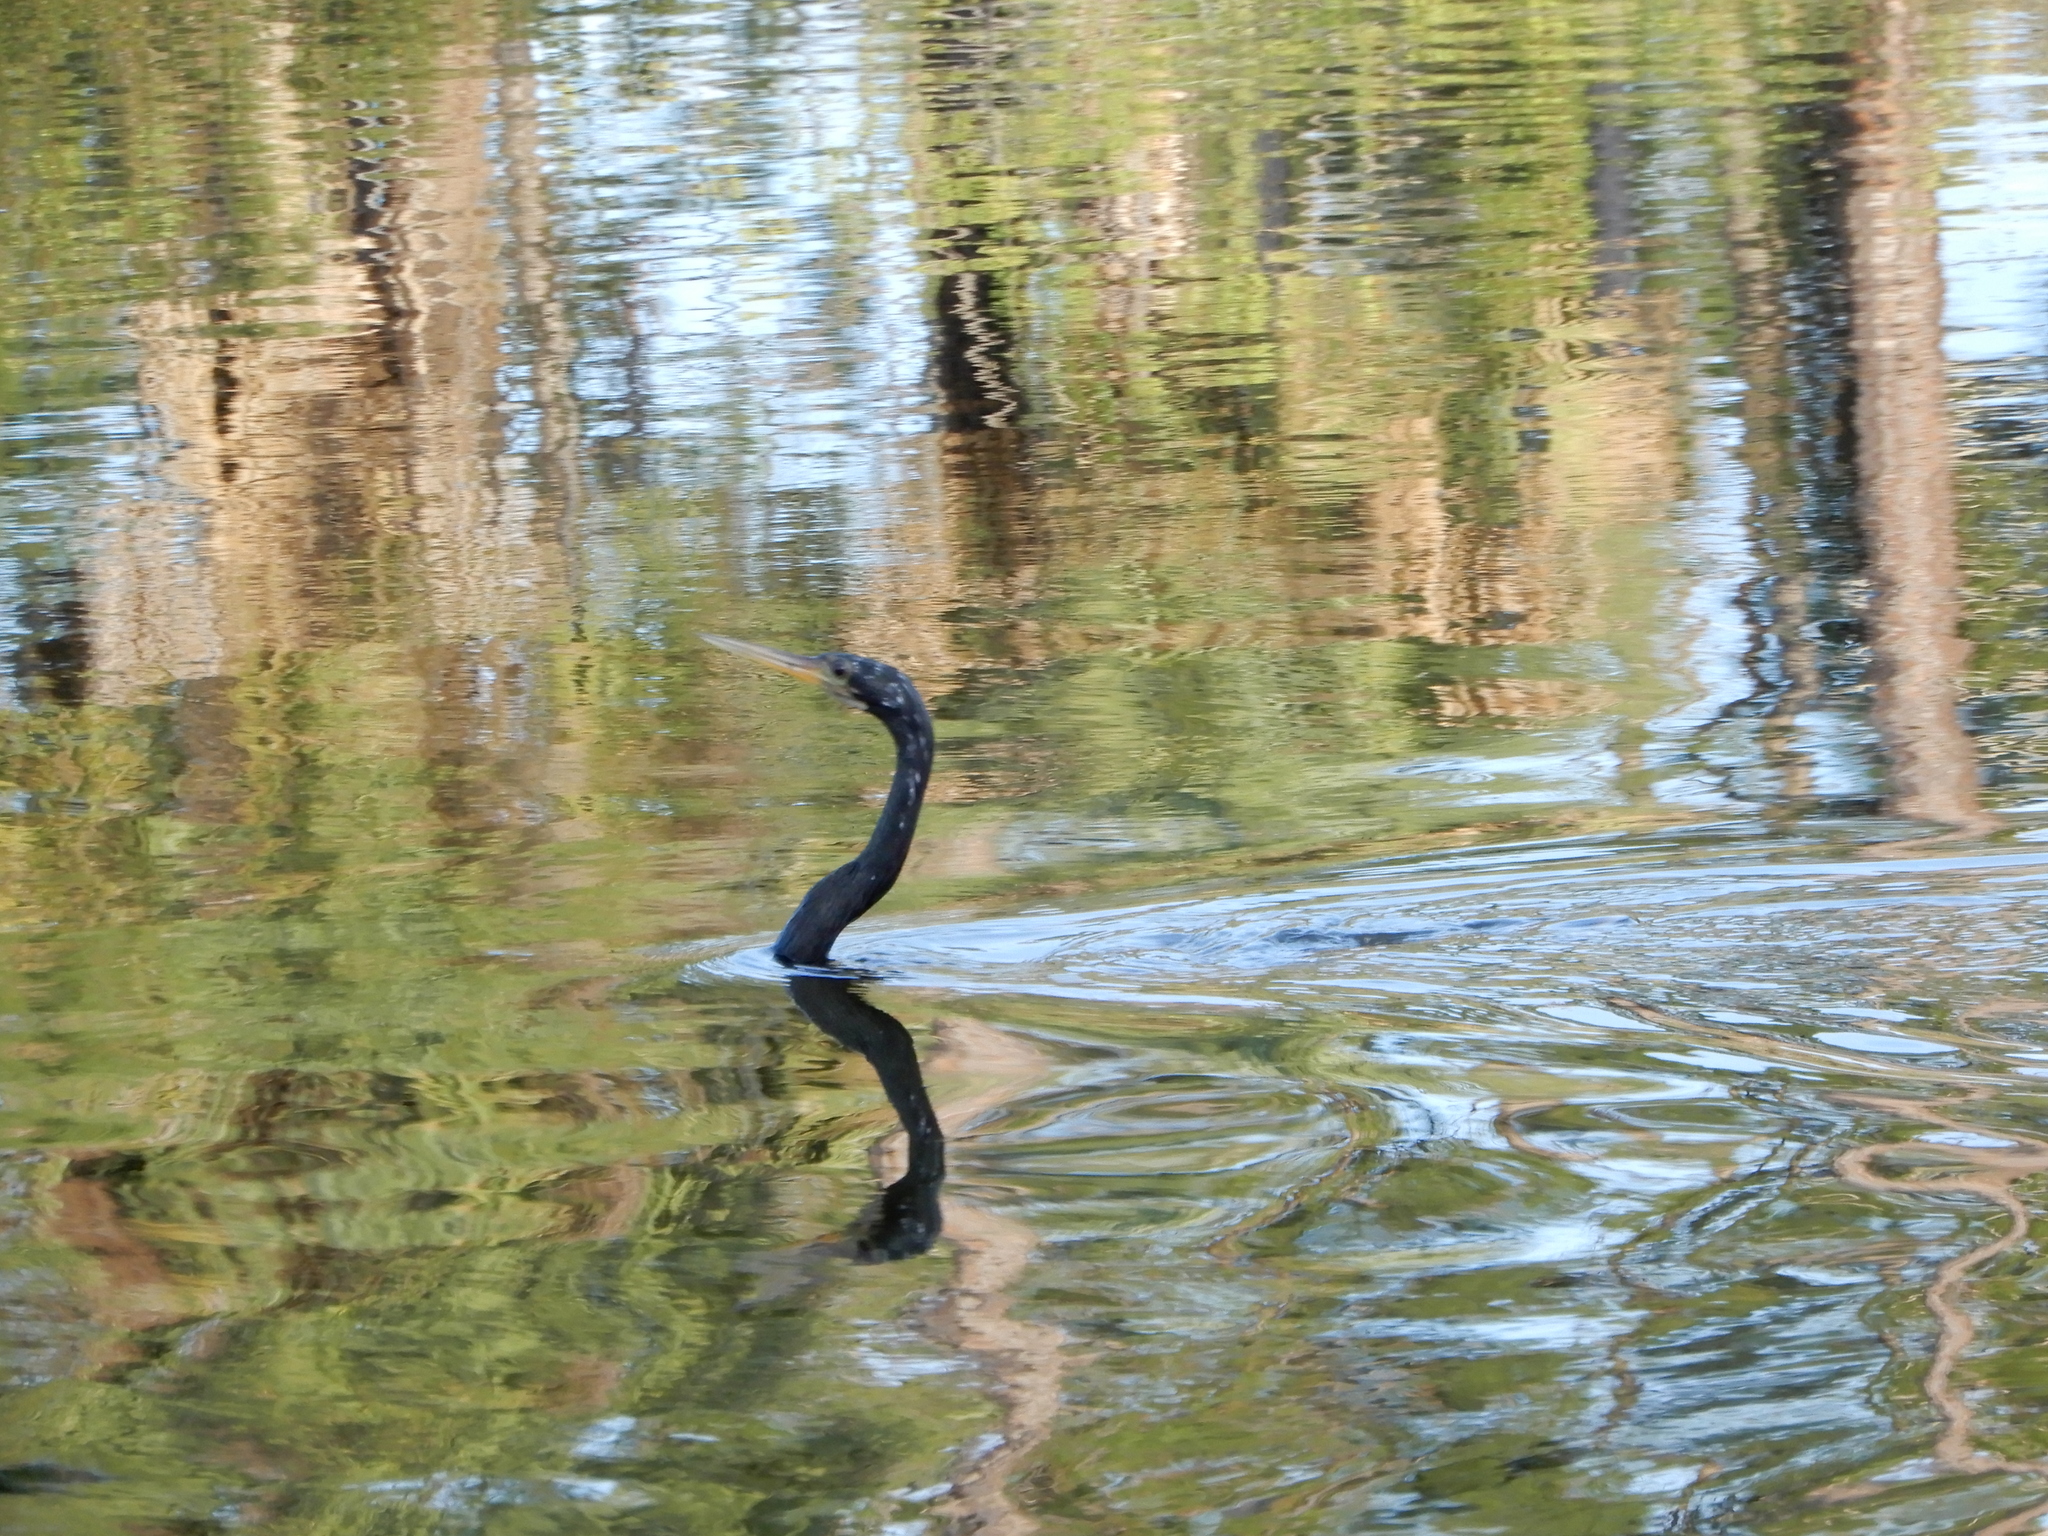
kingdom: Animalia
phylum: Chordata
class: Aves
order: Suliformes
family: Anhingidae
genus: Anhinga
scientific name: Anhinga anhinga
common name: Anhinga
